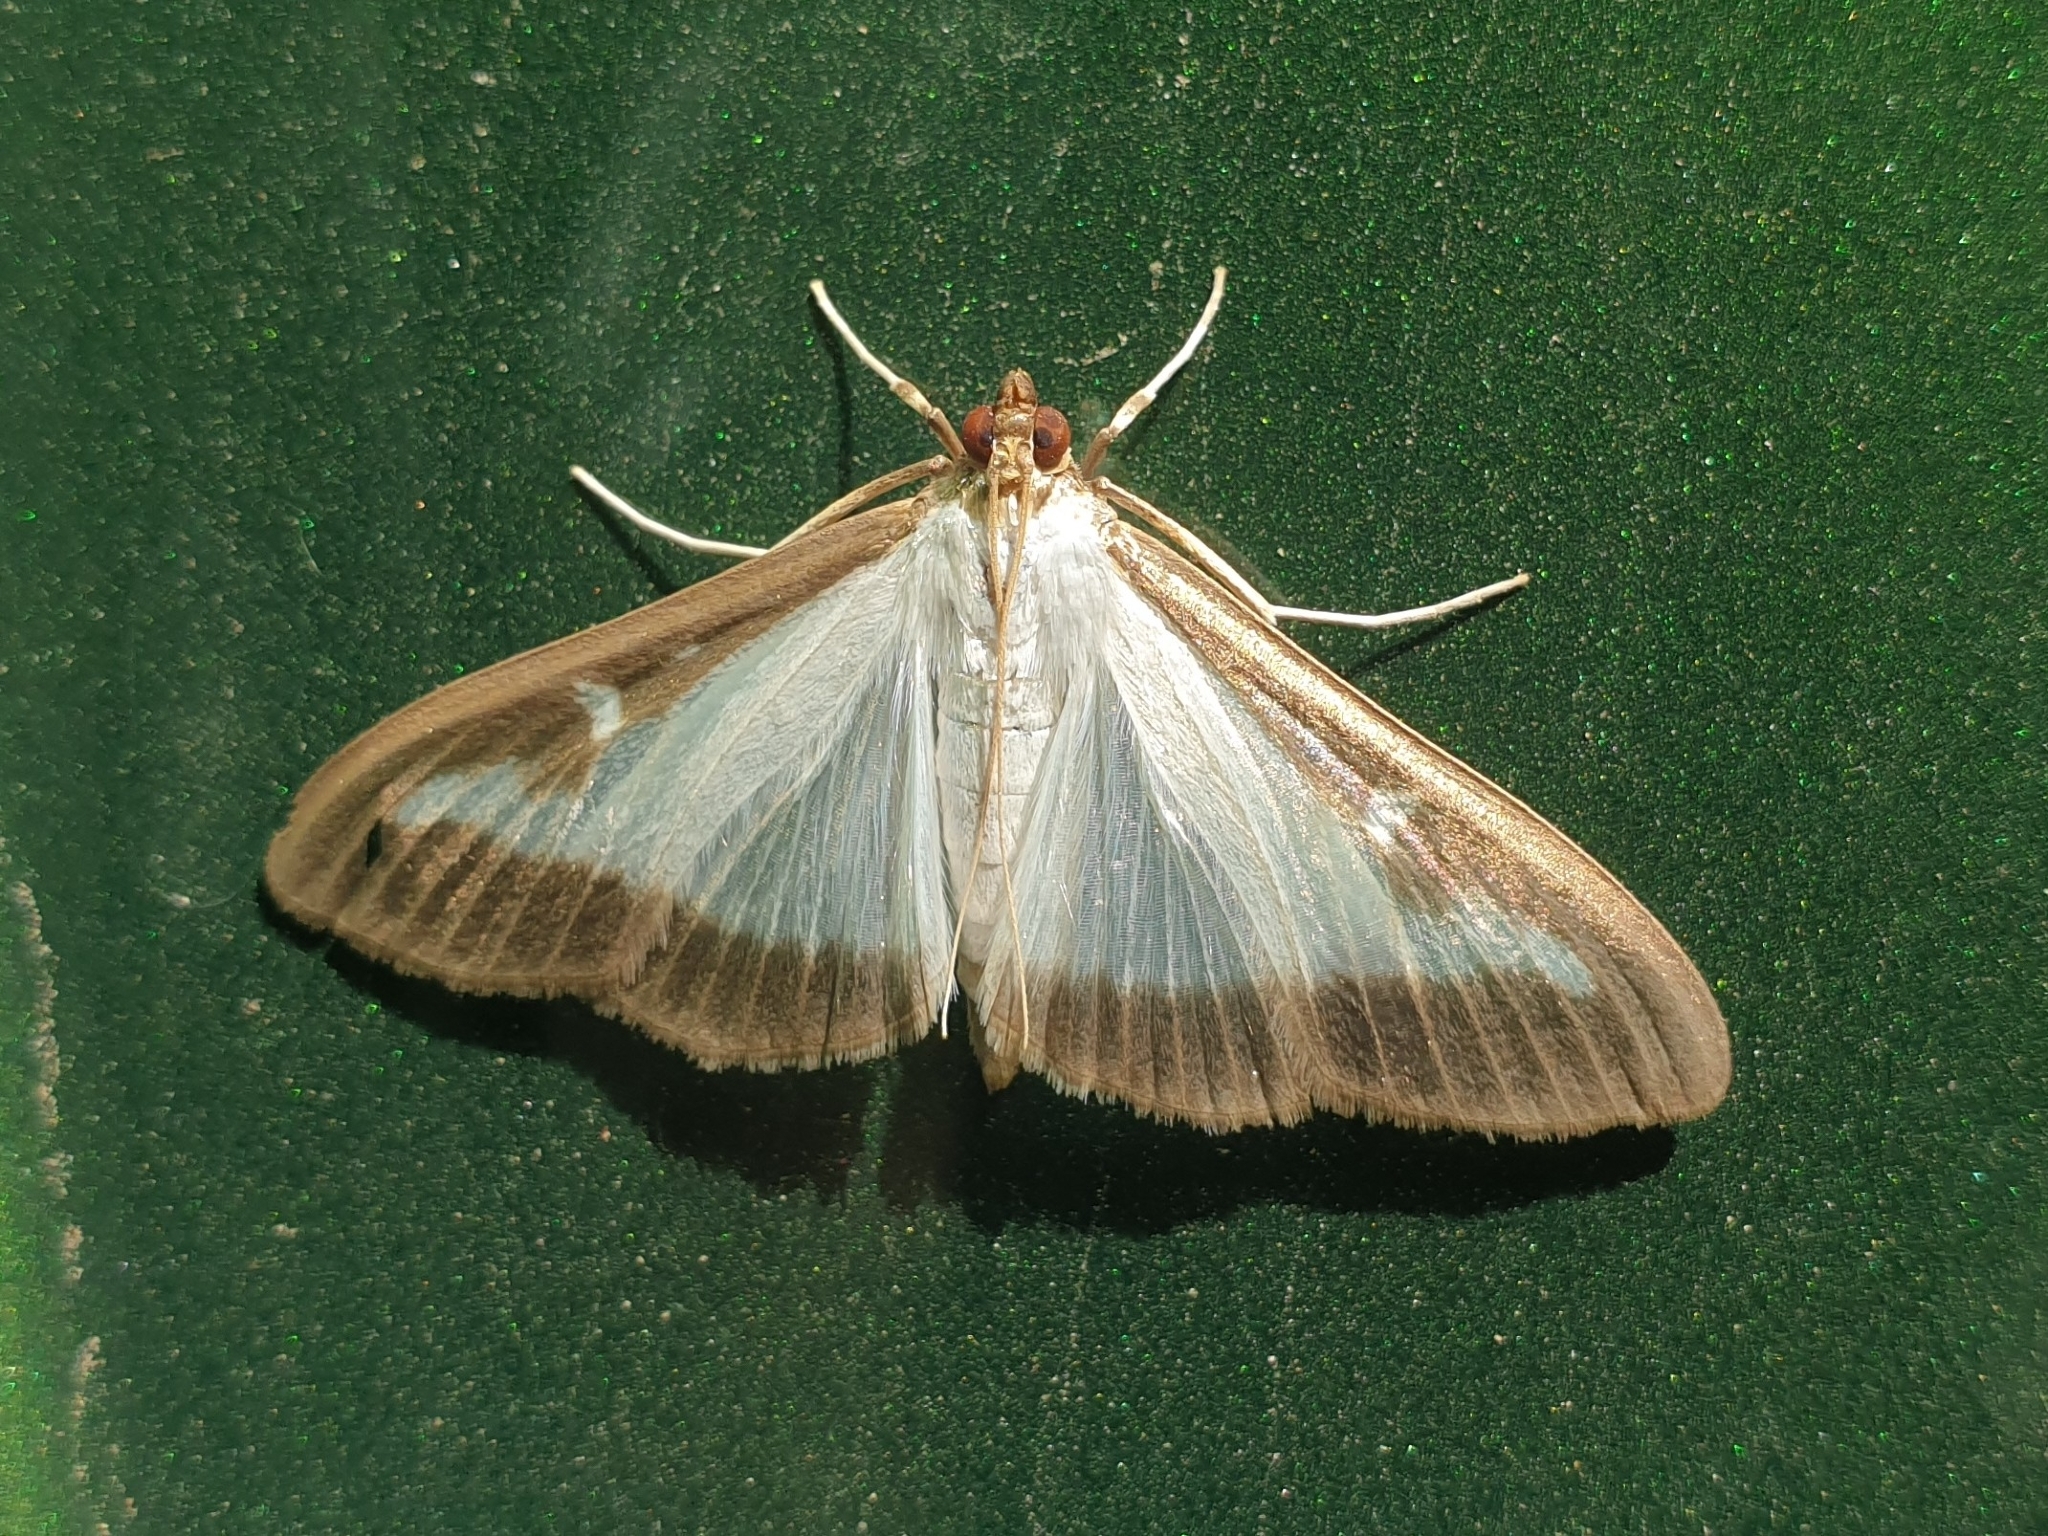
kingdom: Animalia
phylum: Arthropoda
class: Insecta
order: Lepidoptera
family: Crambidae
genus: Cydalima
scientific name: Cydalima perspectalis
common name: Box tree moth
